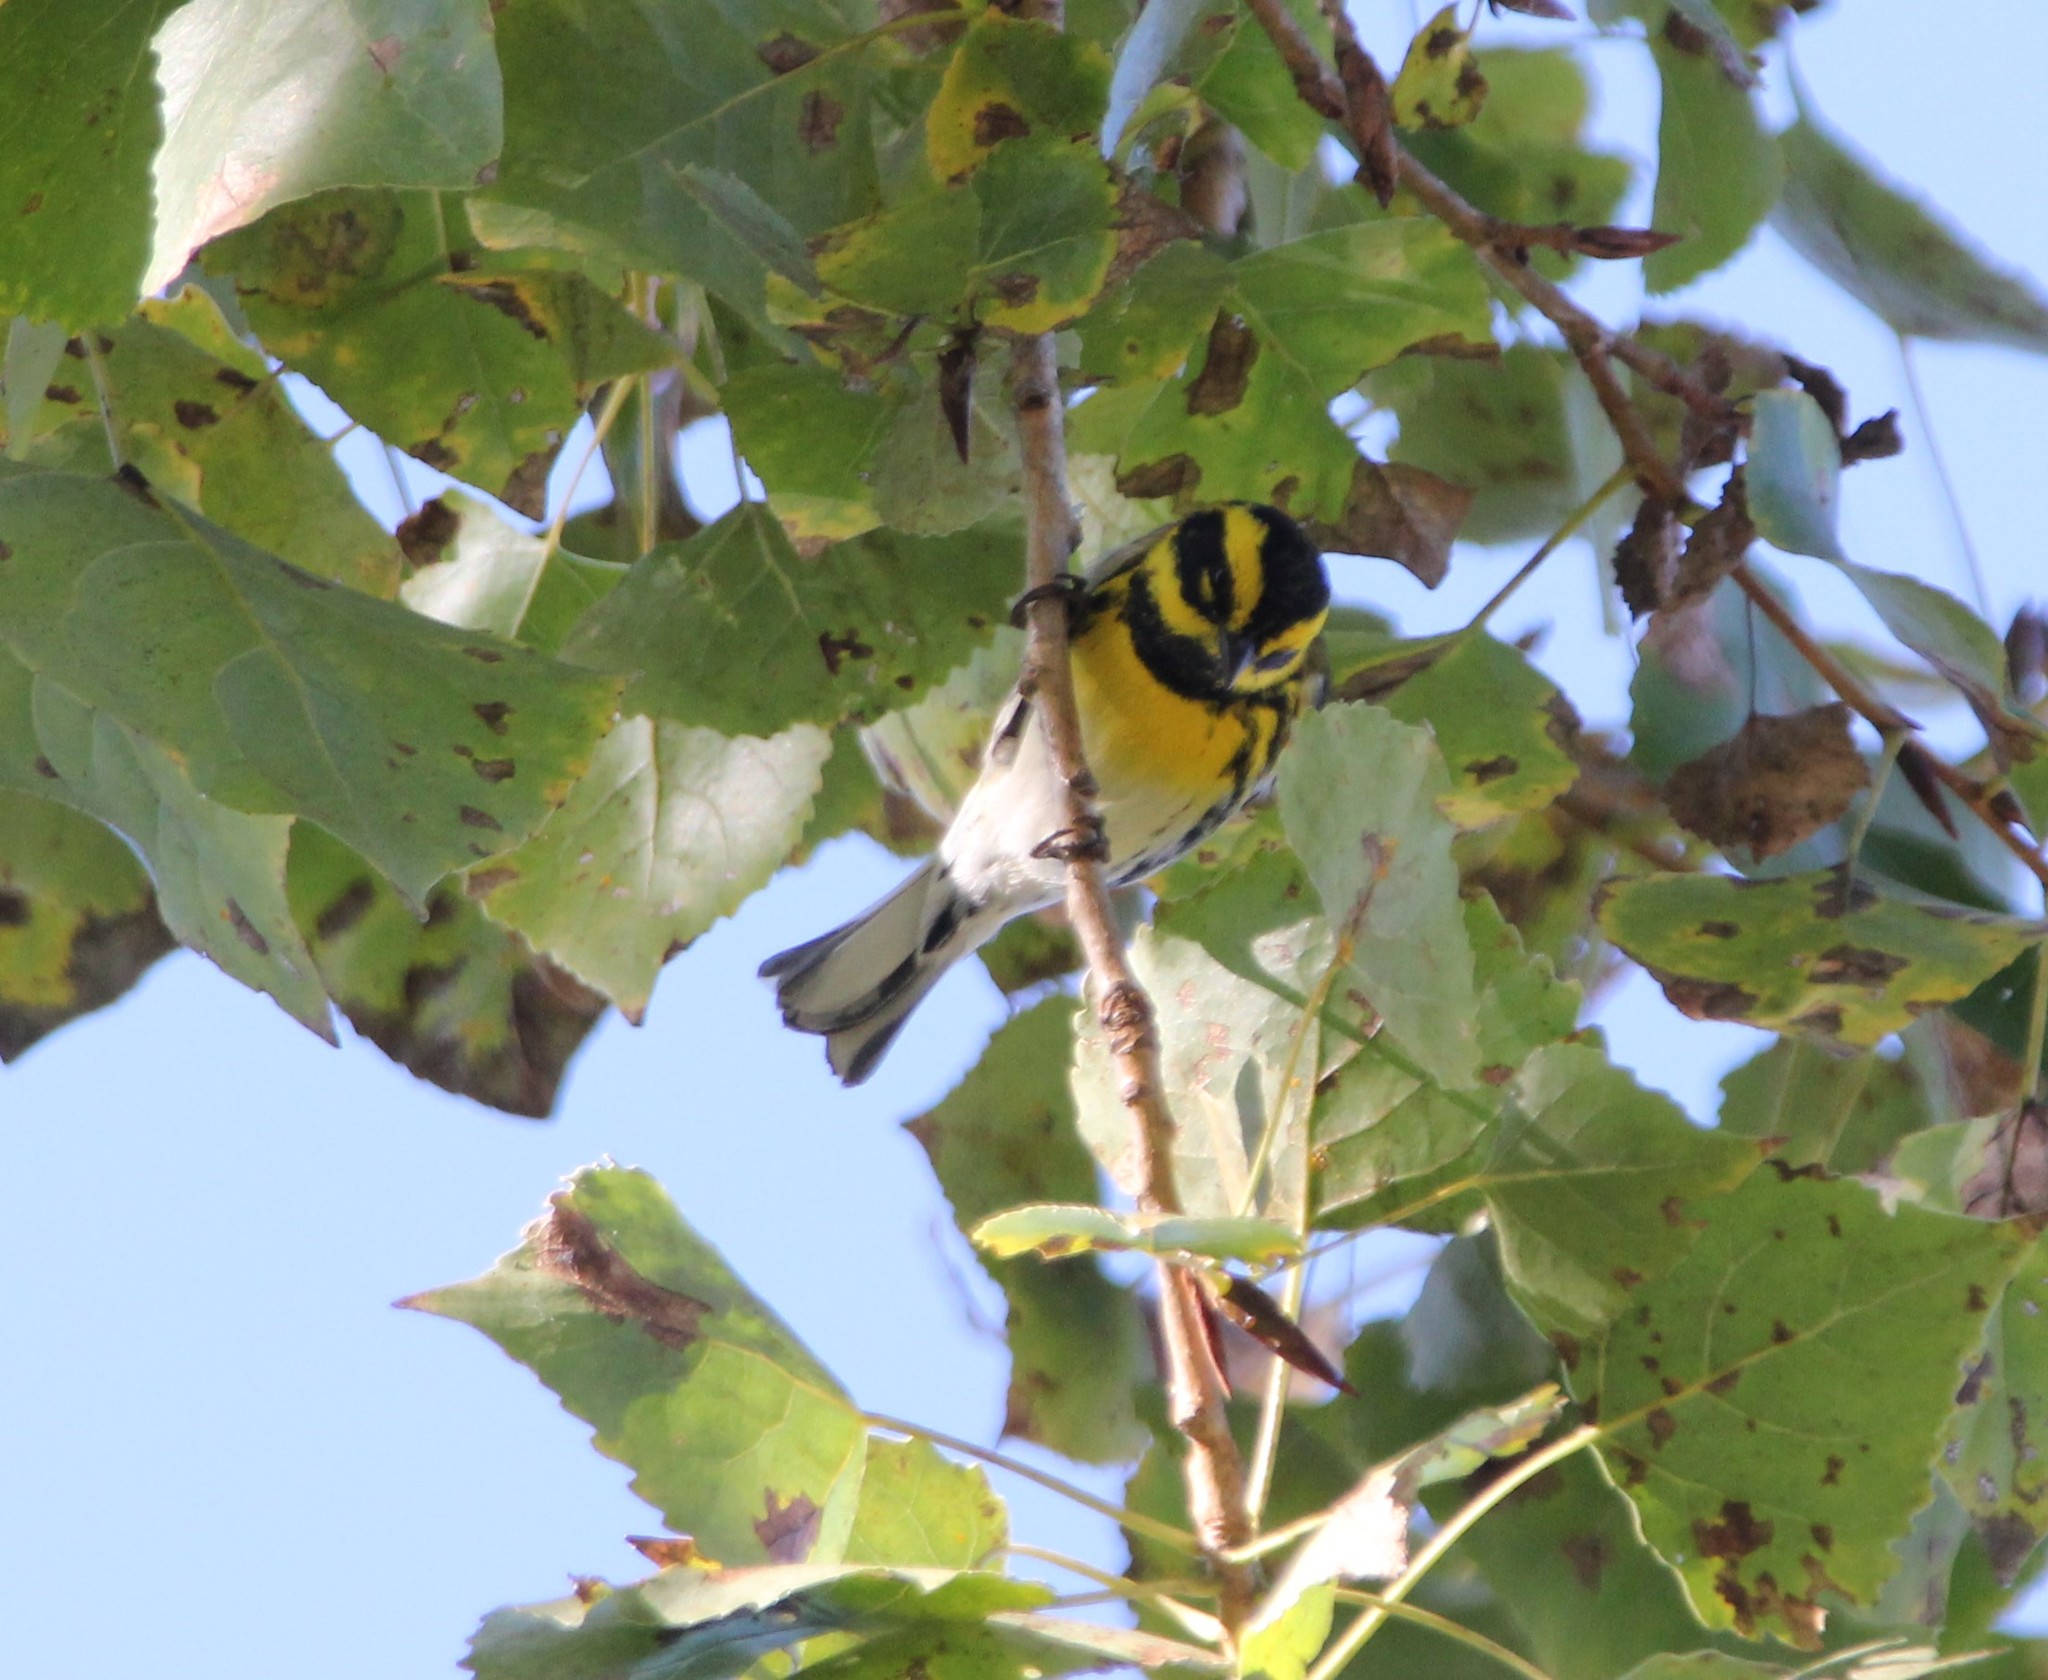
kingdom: Animalia
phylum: Chordata
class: Aves
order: Passeriformes
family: Parulidae
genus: Setophaga
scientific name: Setophaga townsendi
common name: Townsend's warbler
